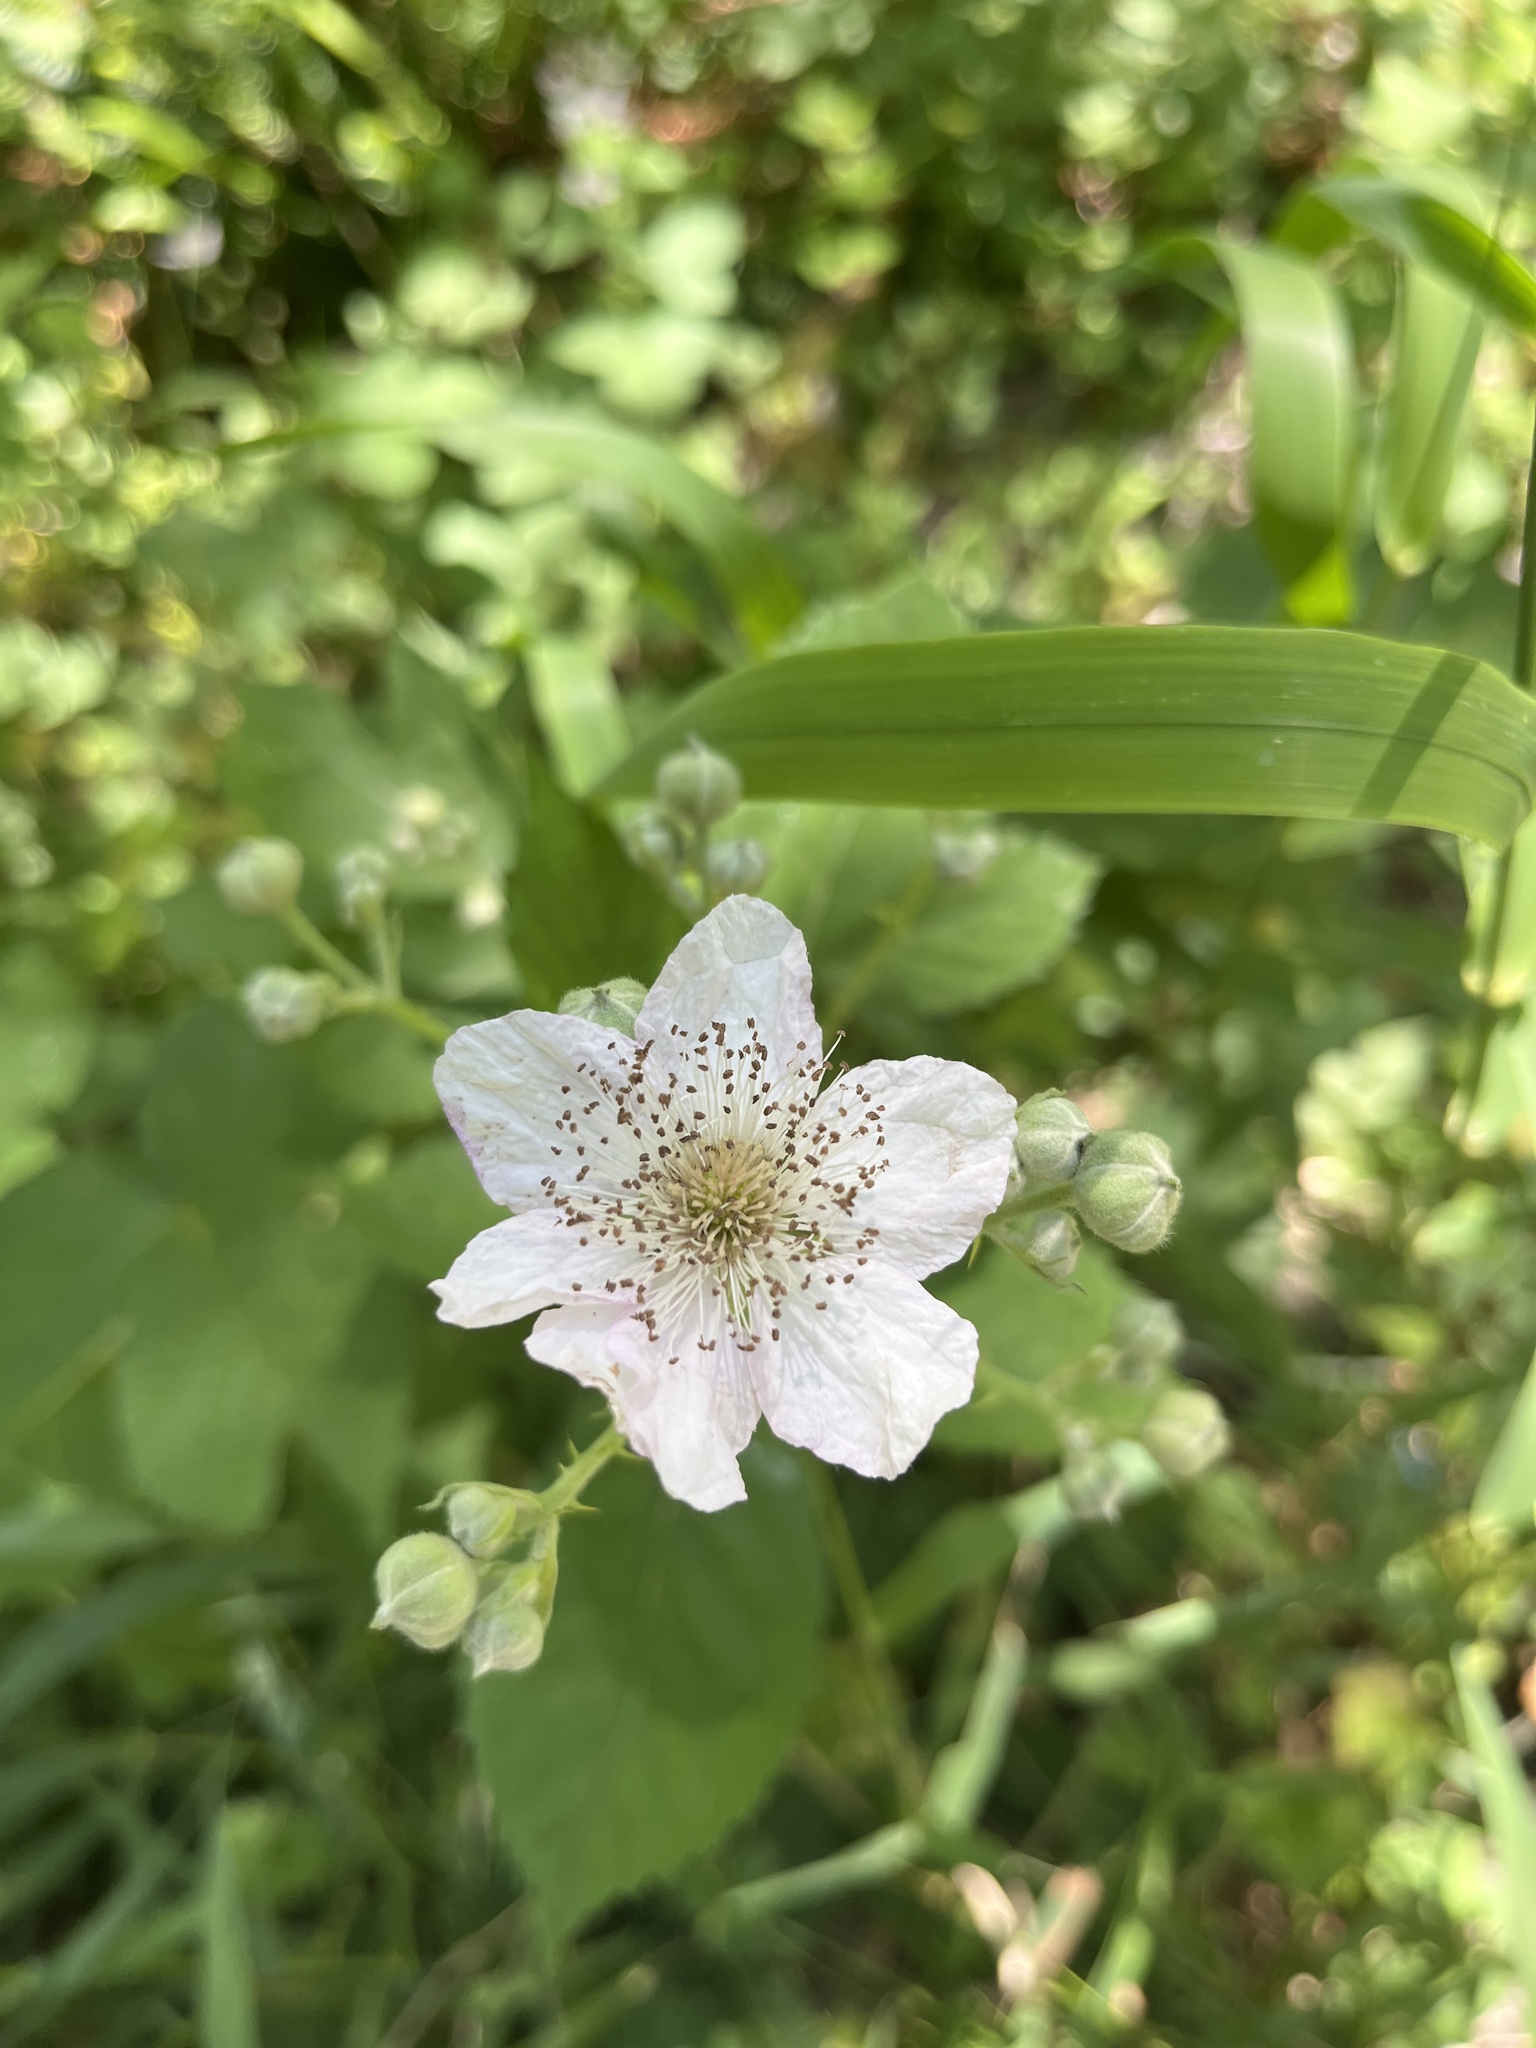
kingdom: Plantae
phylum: Tracheophyta
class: Magnoliopsida
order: Rosales
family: Rosaceae
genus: Rubus
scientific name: Rubus armeniacus
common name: Himalayan blackberry
